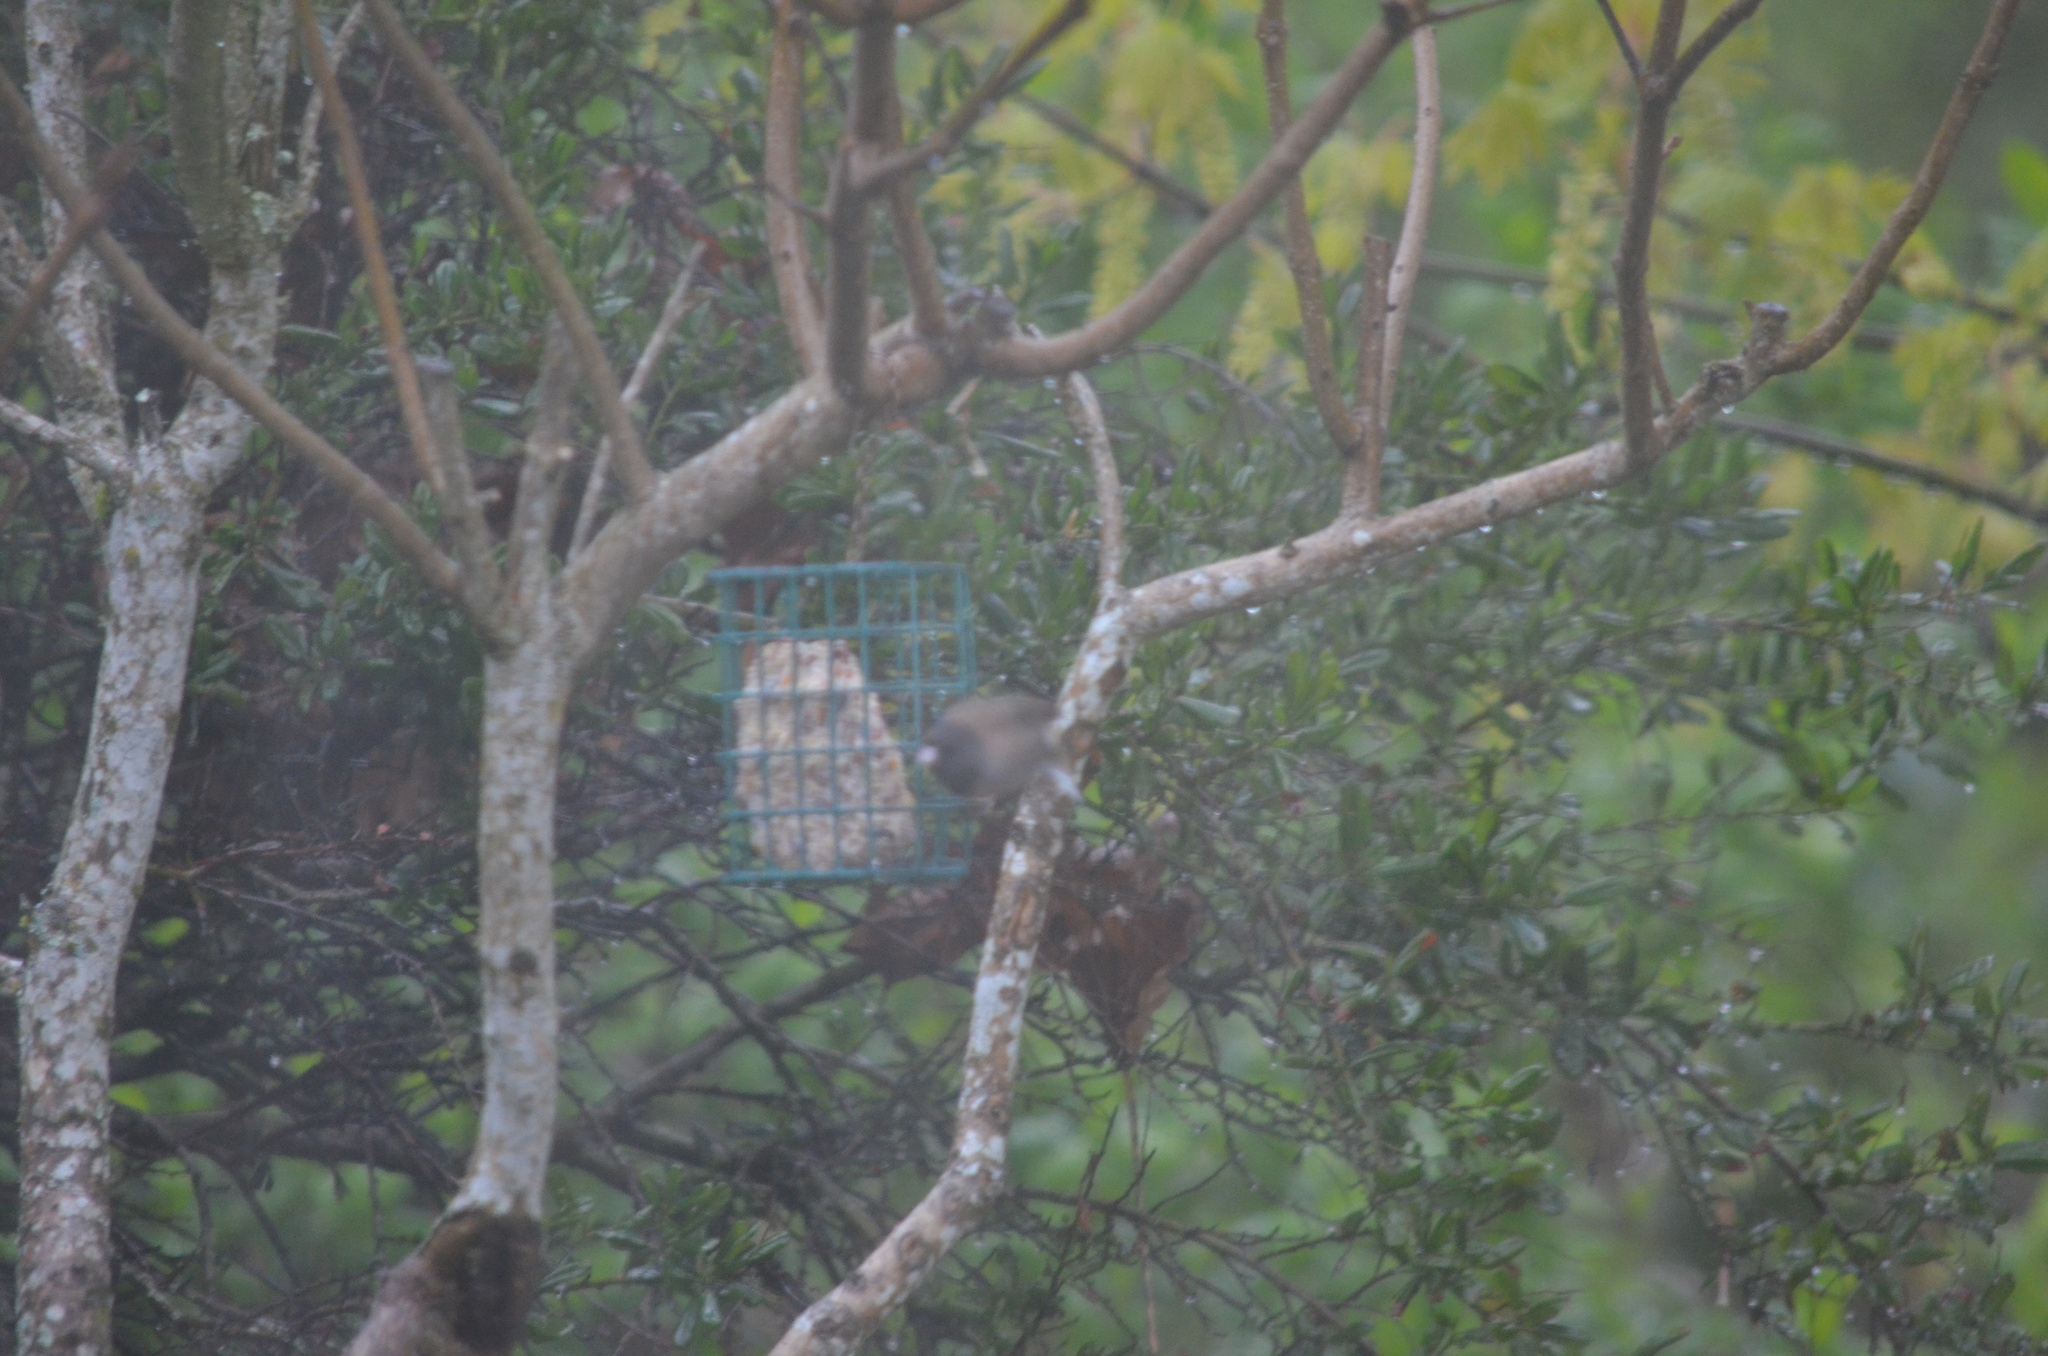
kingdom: Animalia
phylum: Chordata
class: Aves
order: Passeriformes
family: Passerellidae
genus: Junco
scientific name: Junco hyemalis
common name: Dark-eyed junco
